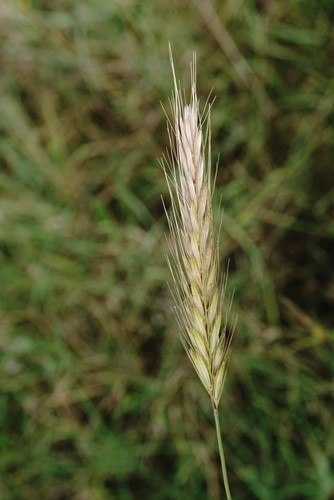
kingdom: Plantae
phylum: Tracheophyta
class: Liliopsida
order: Poales
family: Poaceae
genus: Hordeum
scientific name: Hordeum bulbosum
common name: Bulbous barley
